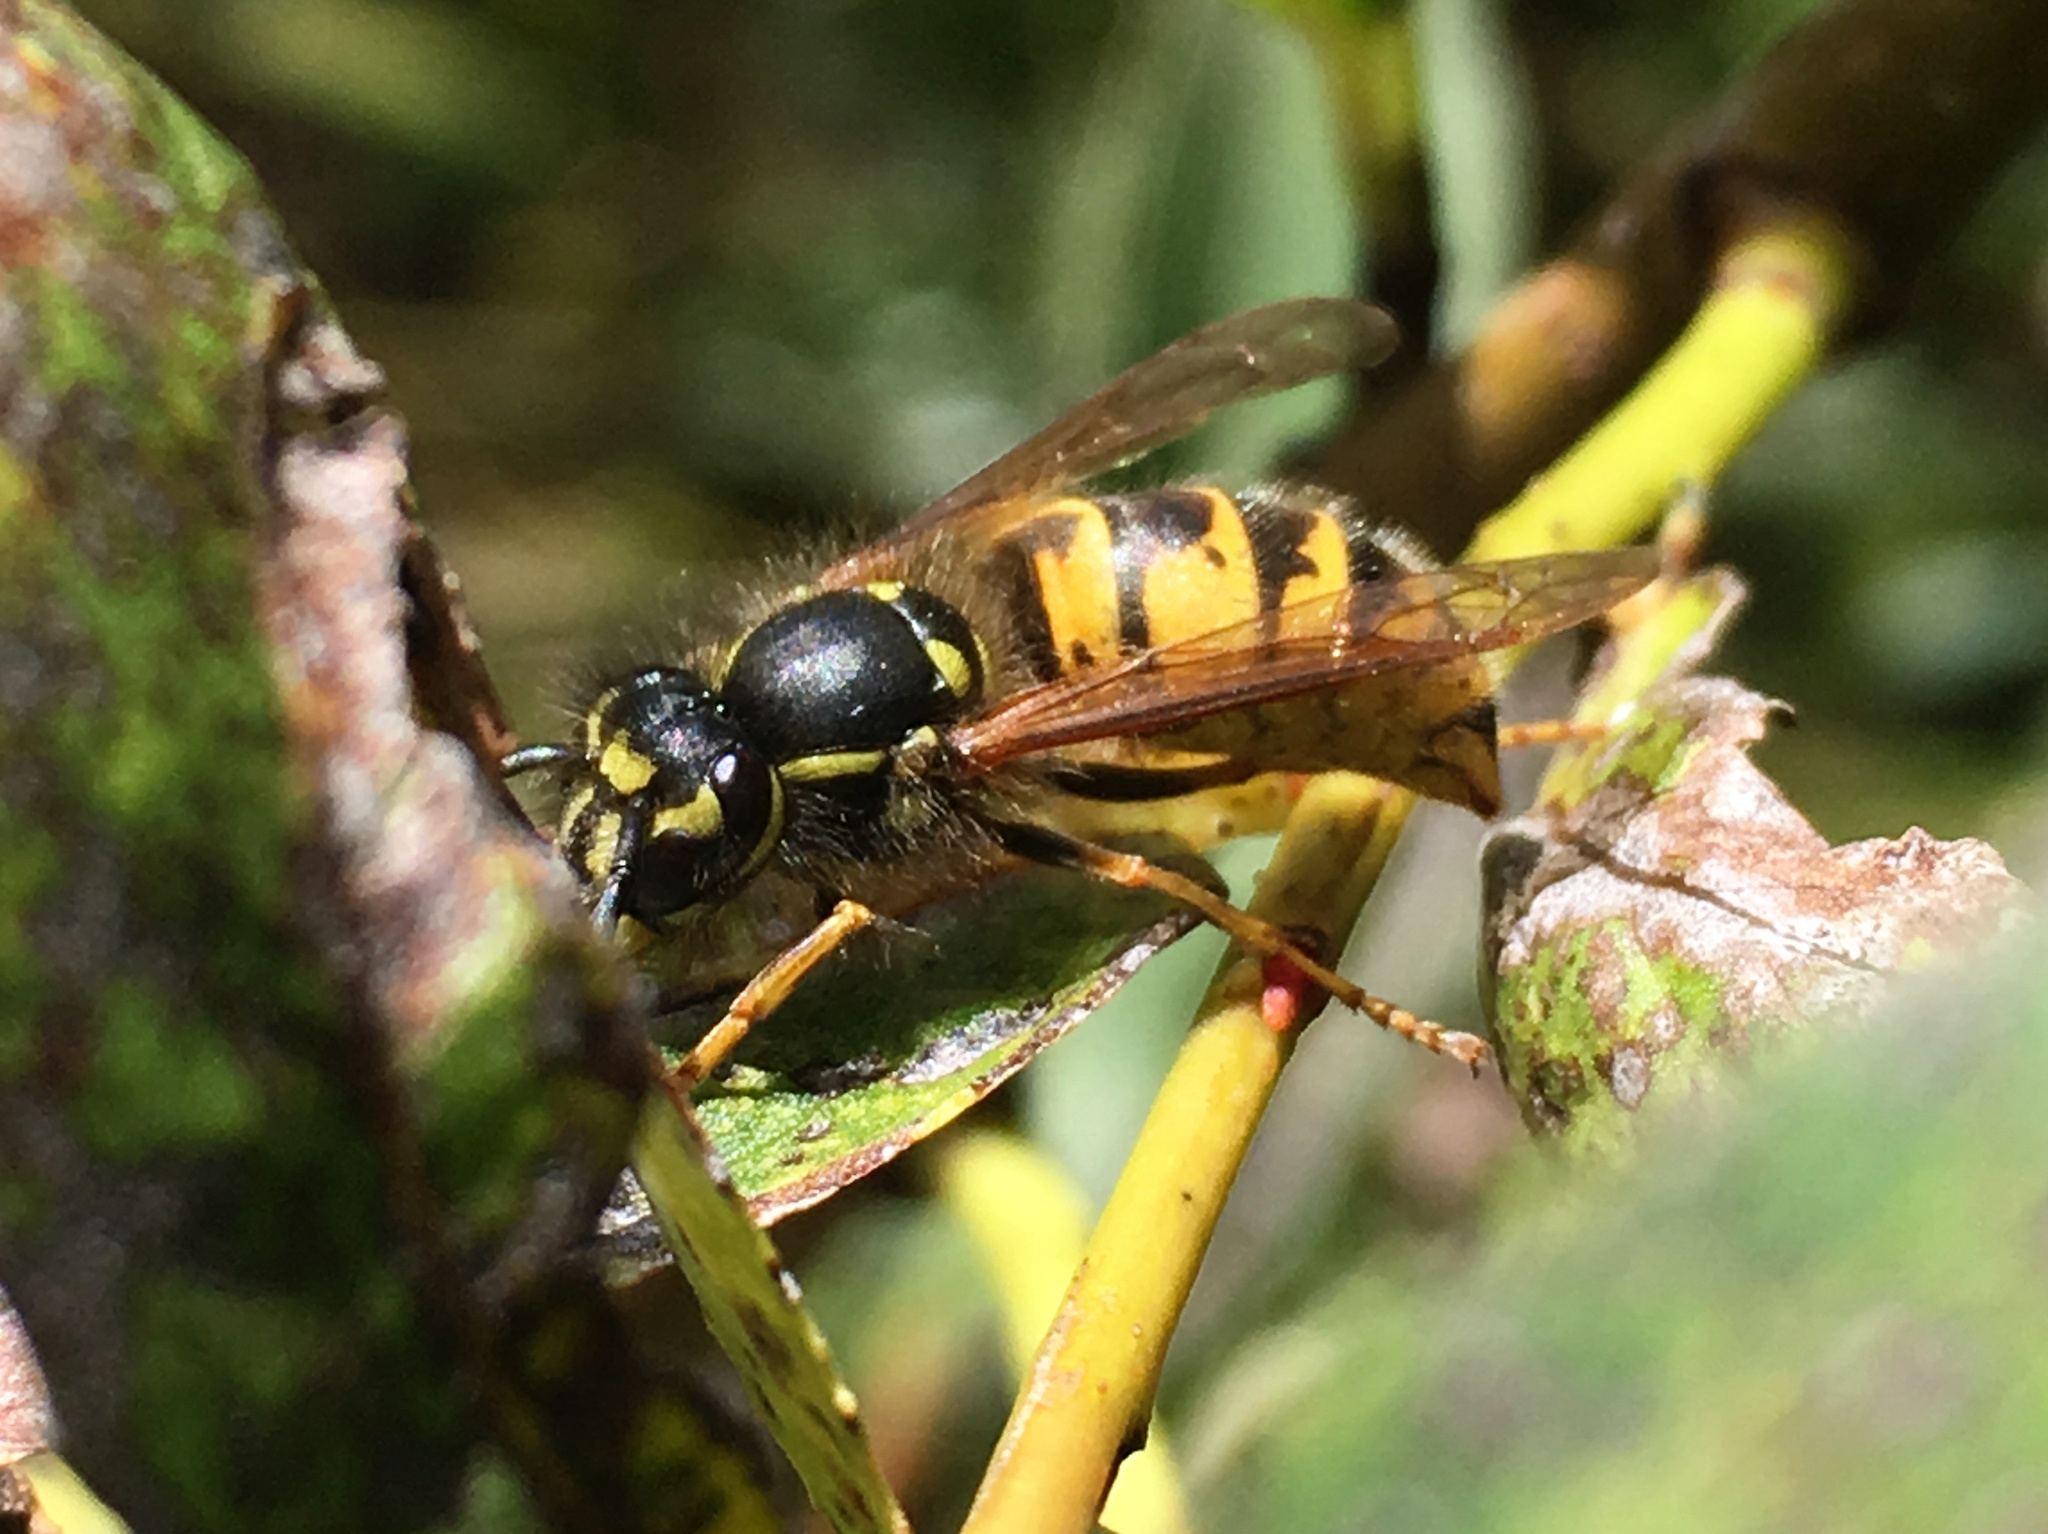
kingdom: Animalia
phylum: Arthropoda
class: Insecta
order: Hymenoptera
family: Vespidae
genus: Vespula
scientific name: Vespula vulgaris
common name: Common wasp
